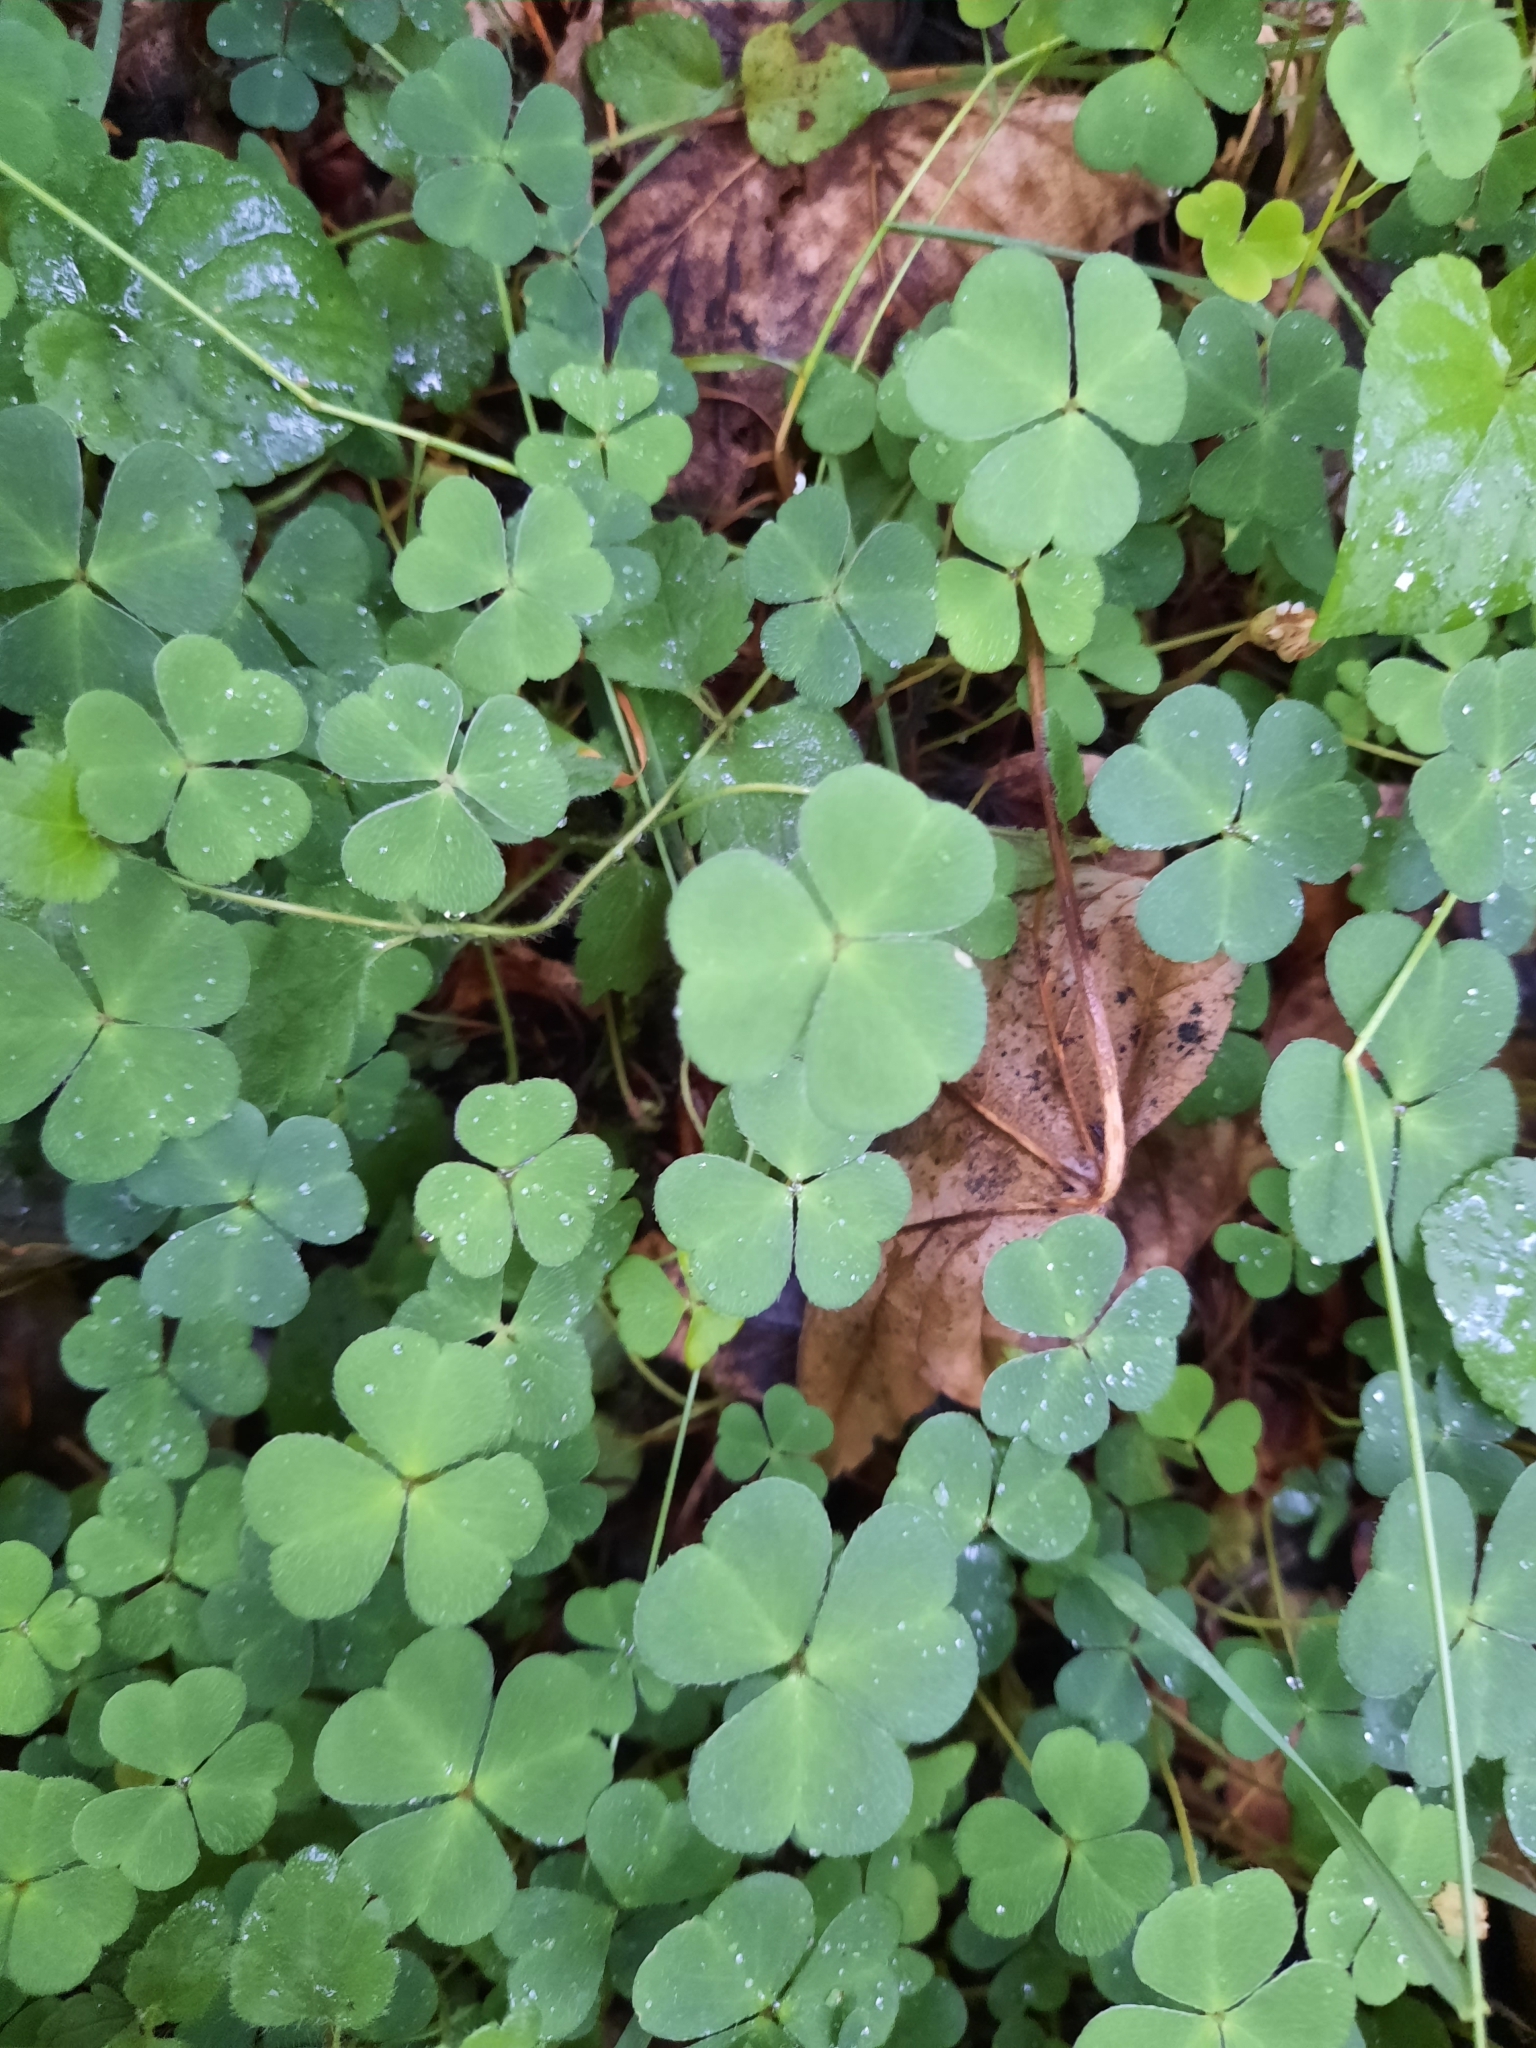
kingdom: Plantae
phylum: Tracheophyta
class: Magnoliopsida
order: Oxalidales
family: Oxalidaceae
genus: Oxalis
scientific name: Oxalis acetosella
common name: Wood-sorrel
